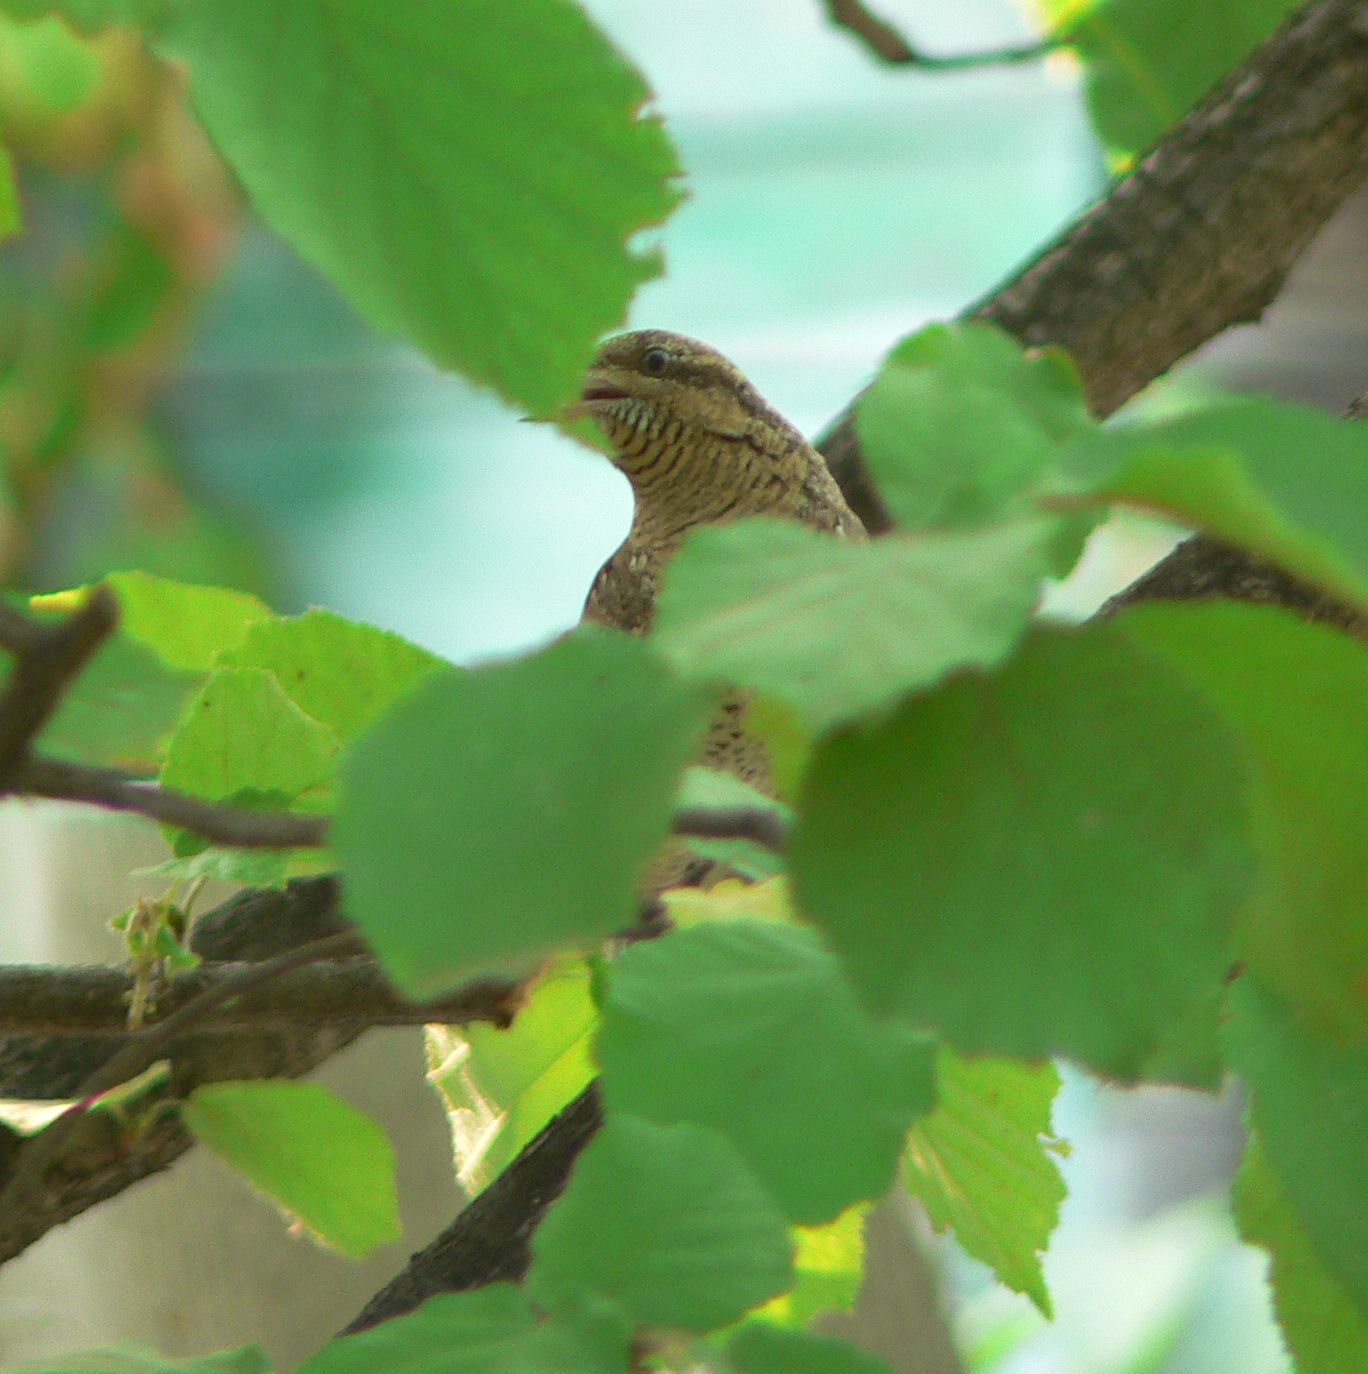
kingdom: Animalia
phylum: Chordata
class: Aves
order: Piciformes
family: Picidae
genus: Jynx
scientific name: Jynx torquilla
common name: Eurasian wryneck
